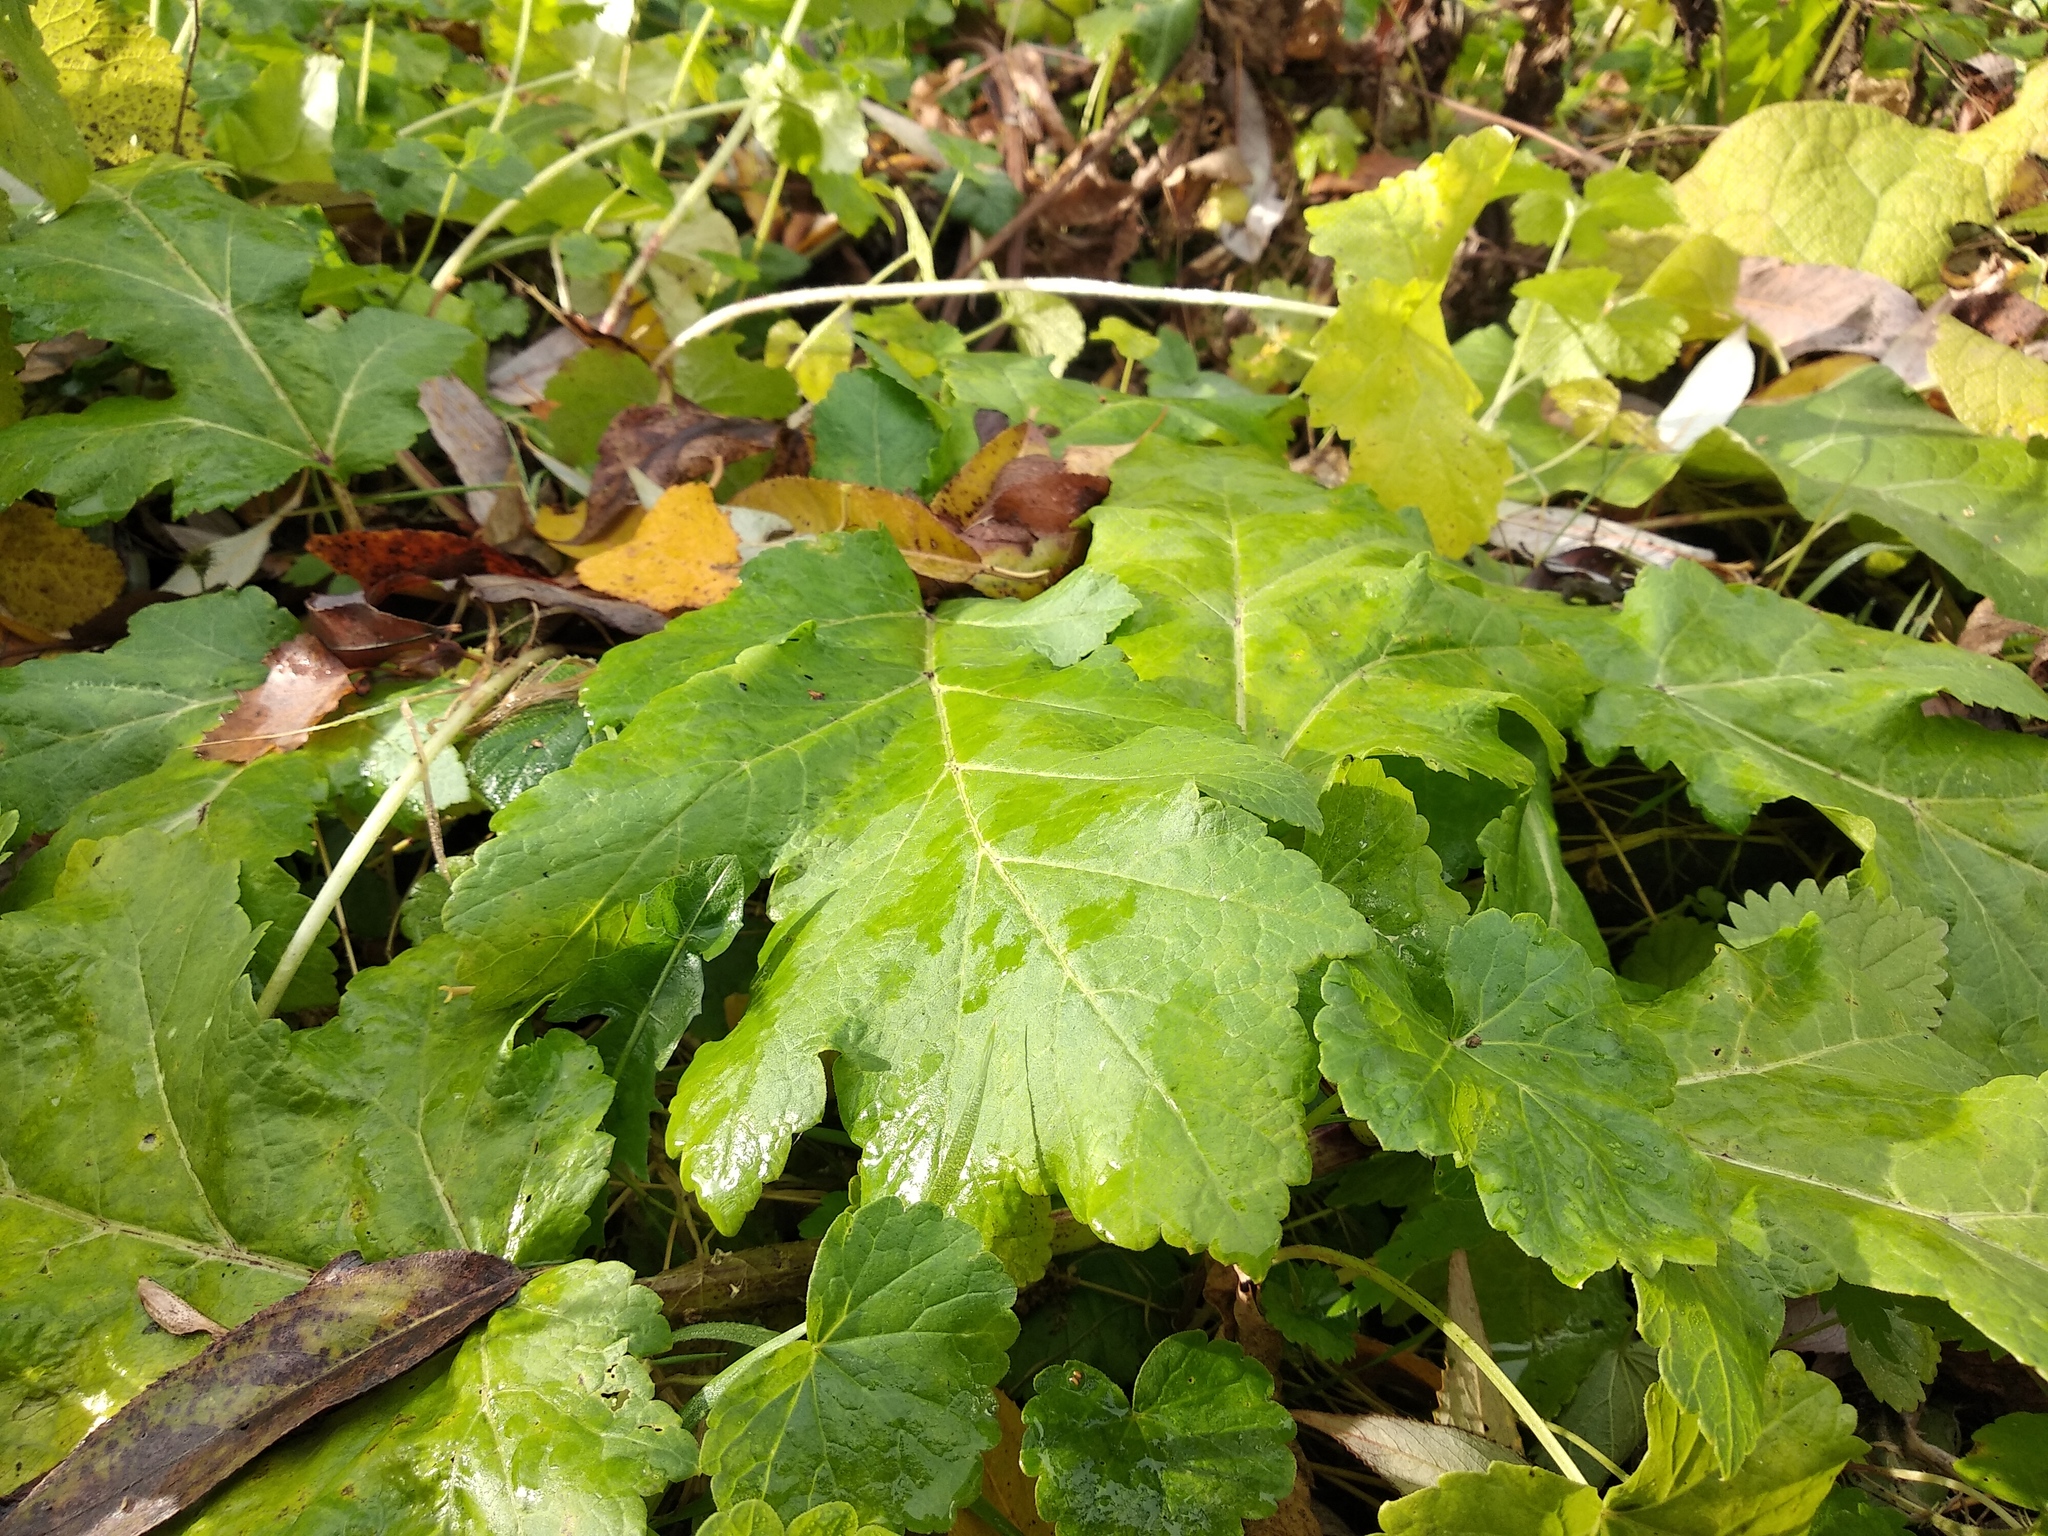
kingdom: Plantae
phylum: Tracheophyta
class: Magnoliopsida
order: Apiales
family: Apiaceae
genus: Heracleum
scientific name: Heracleum sosnowskyi
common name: Sosnowsky's hogweed
